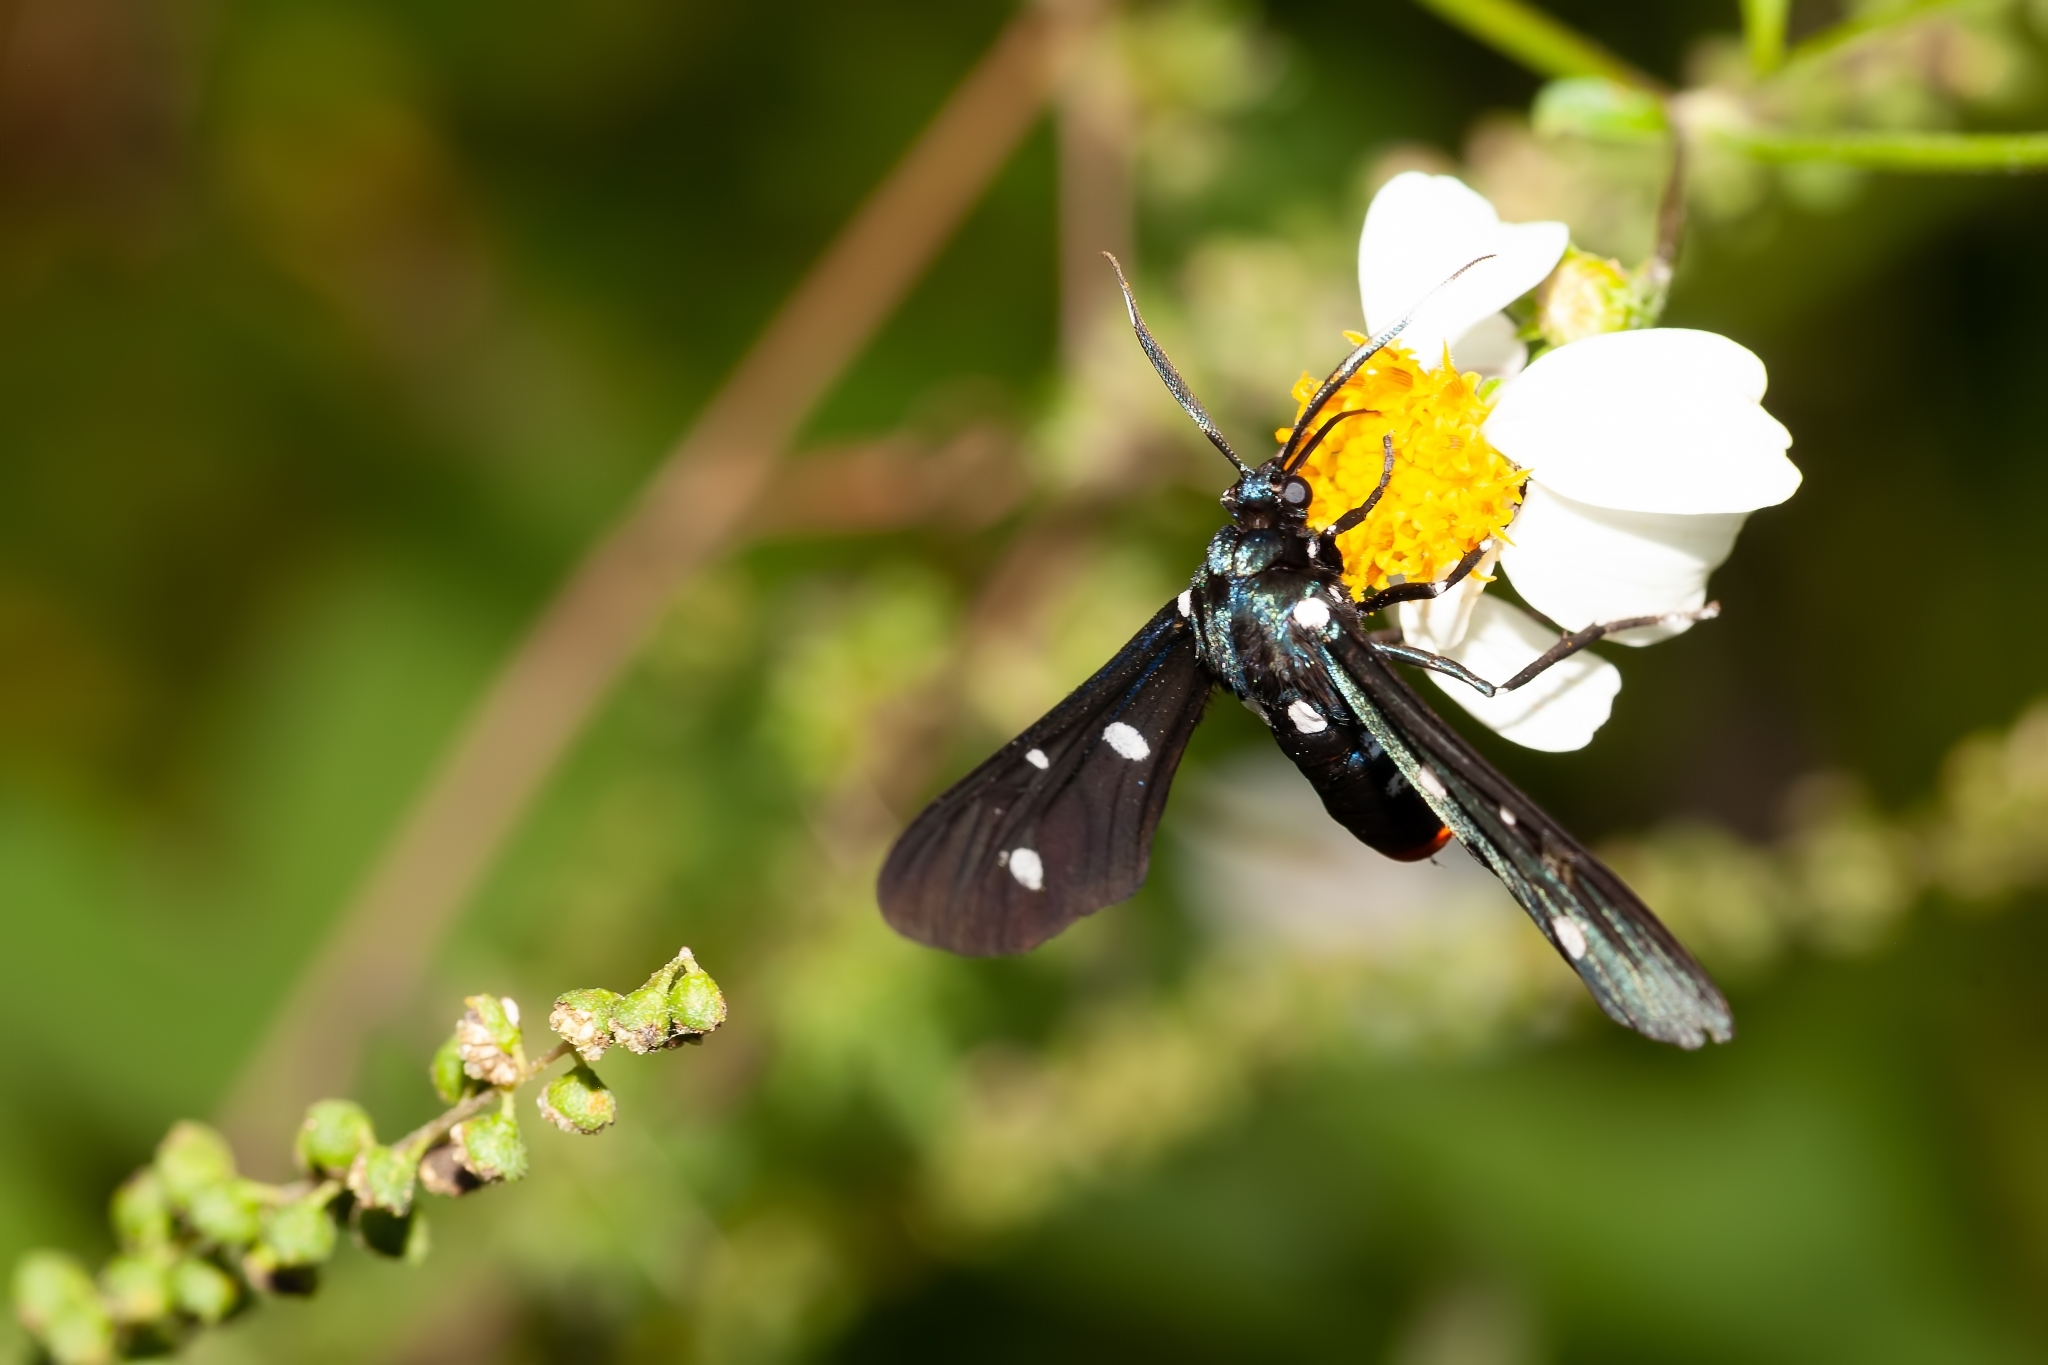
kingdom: Animalia
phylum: Arthropoda
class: Insecta
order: Lepidoptera
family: Erebidae
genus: Syntomeida
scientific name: Syntomeida epilais
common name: Polka-dot wasp moth
